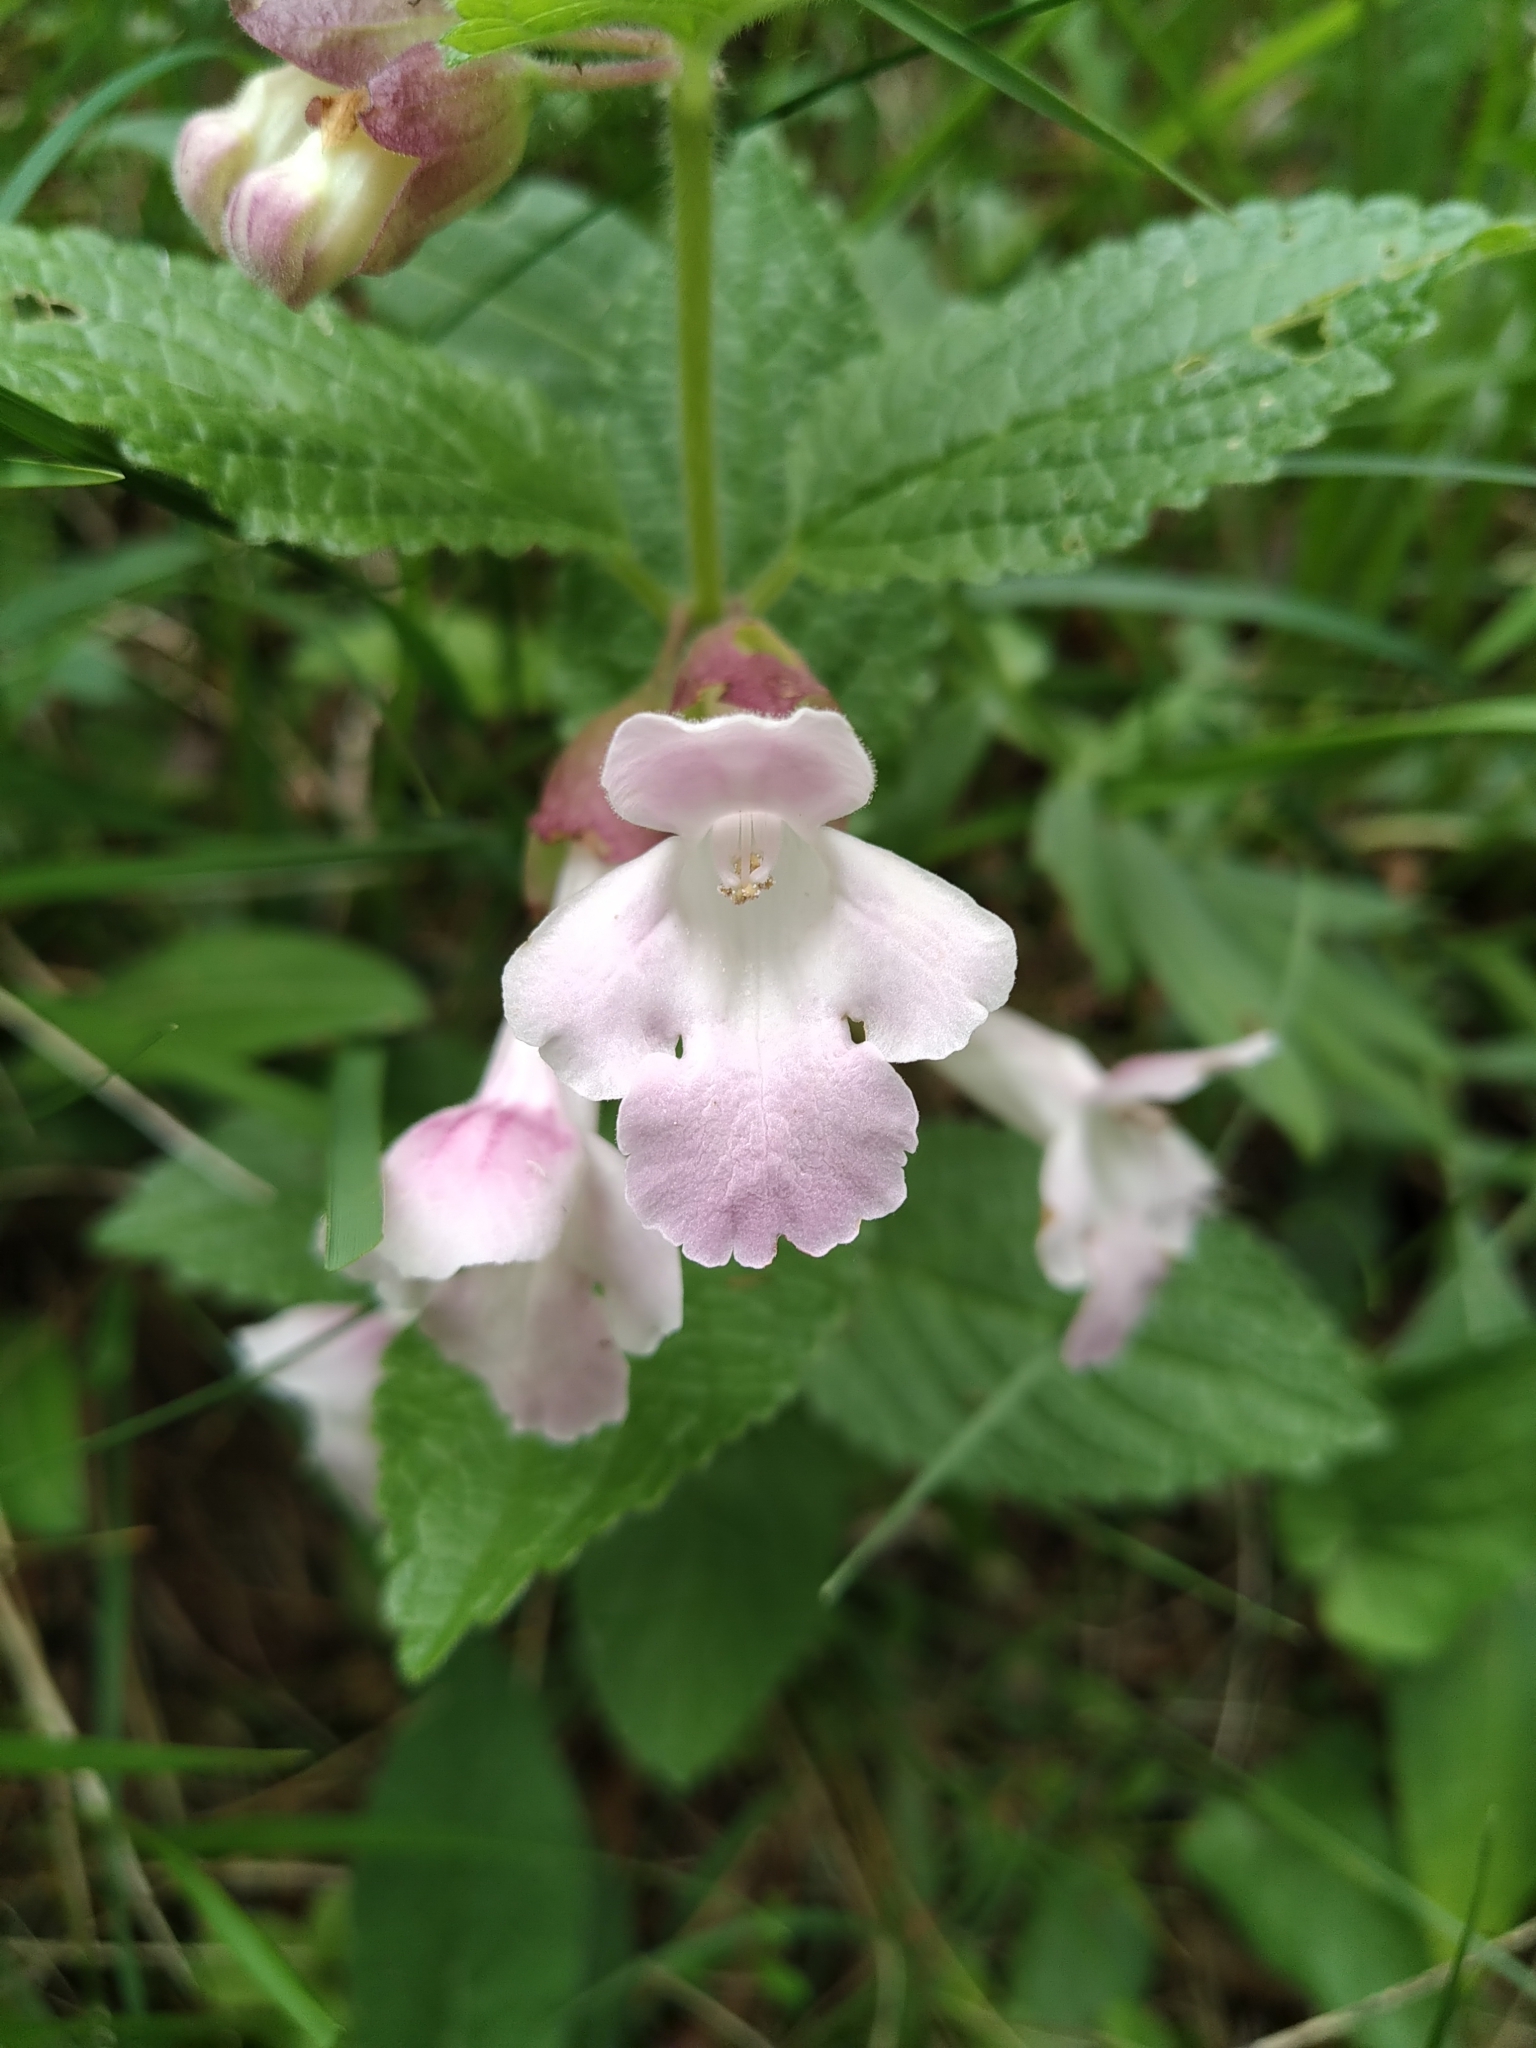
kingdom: Plantae
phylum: Tracheophyta
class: Magnoliopsida
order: Lamiales
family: Lamiaceae
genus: Melittis
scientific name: Melittis melissophyllum
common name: Bastard balm
